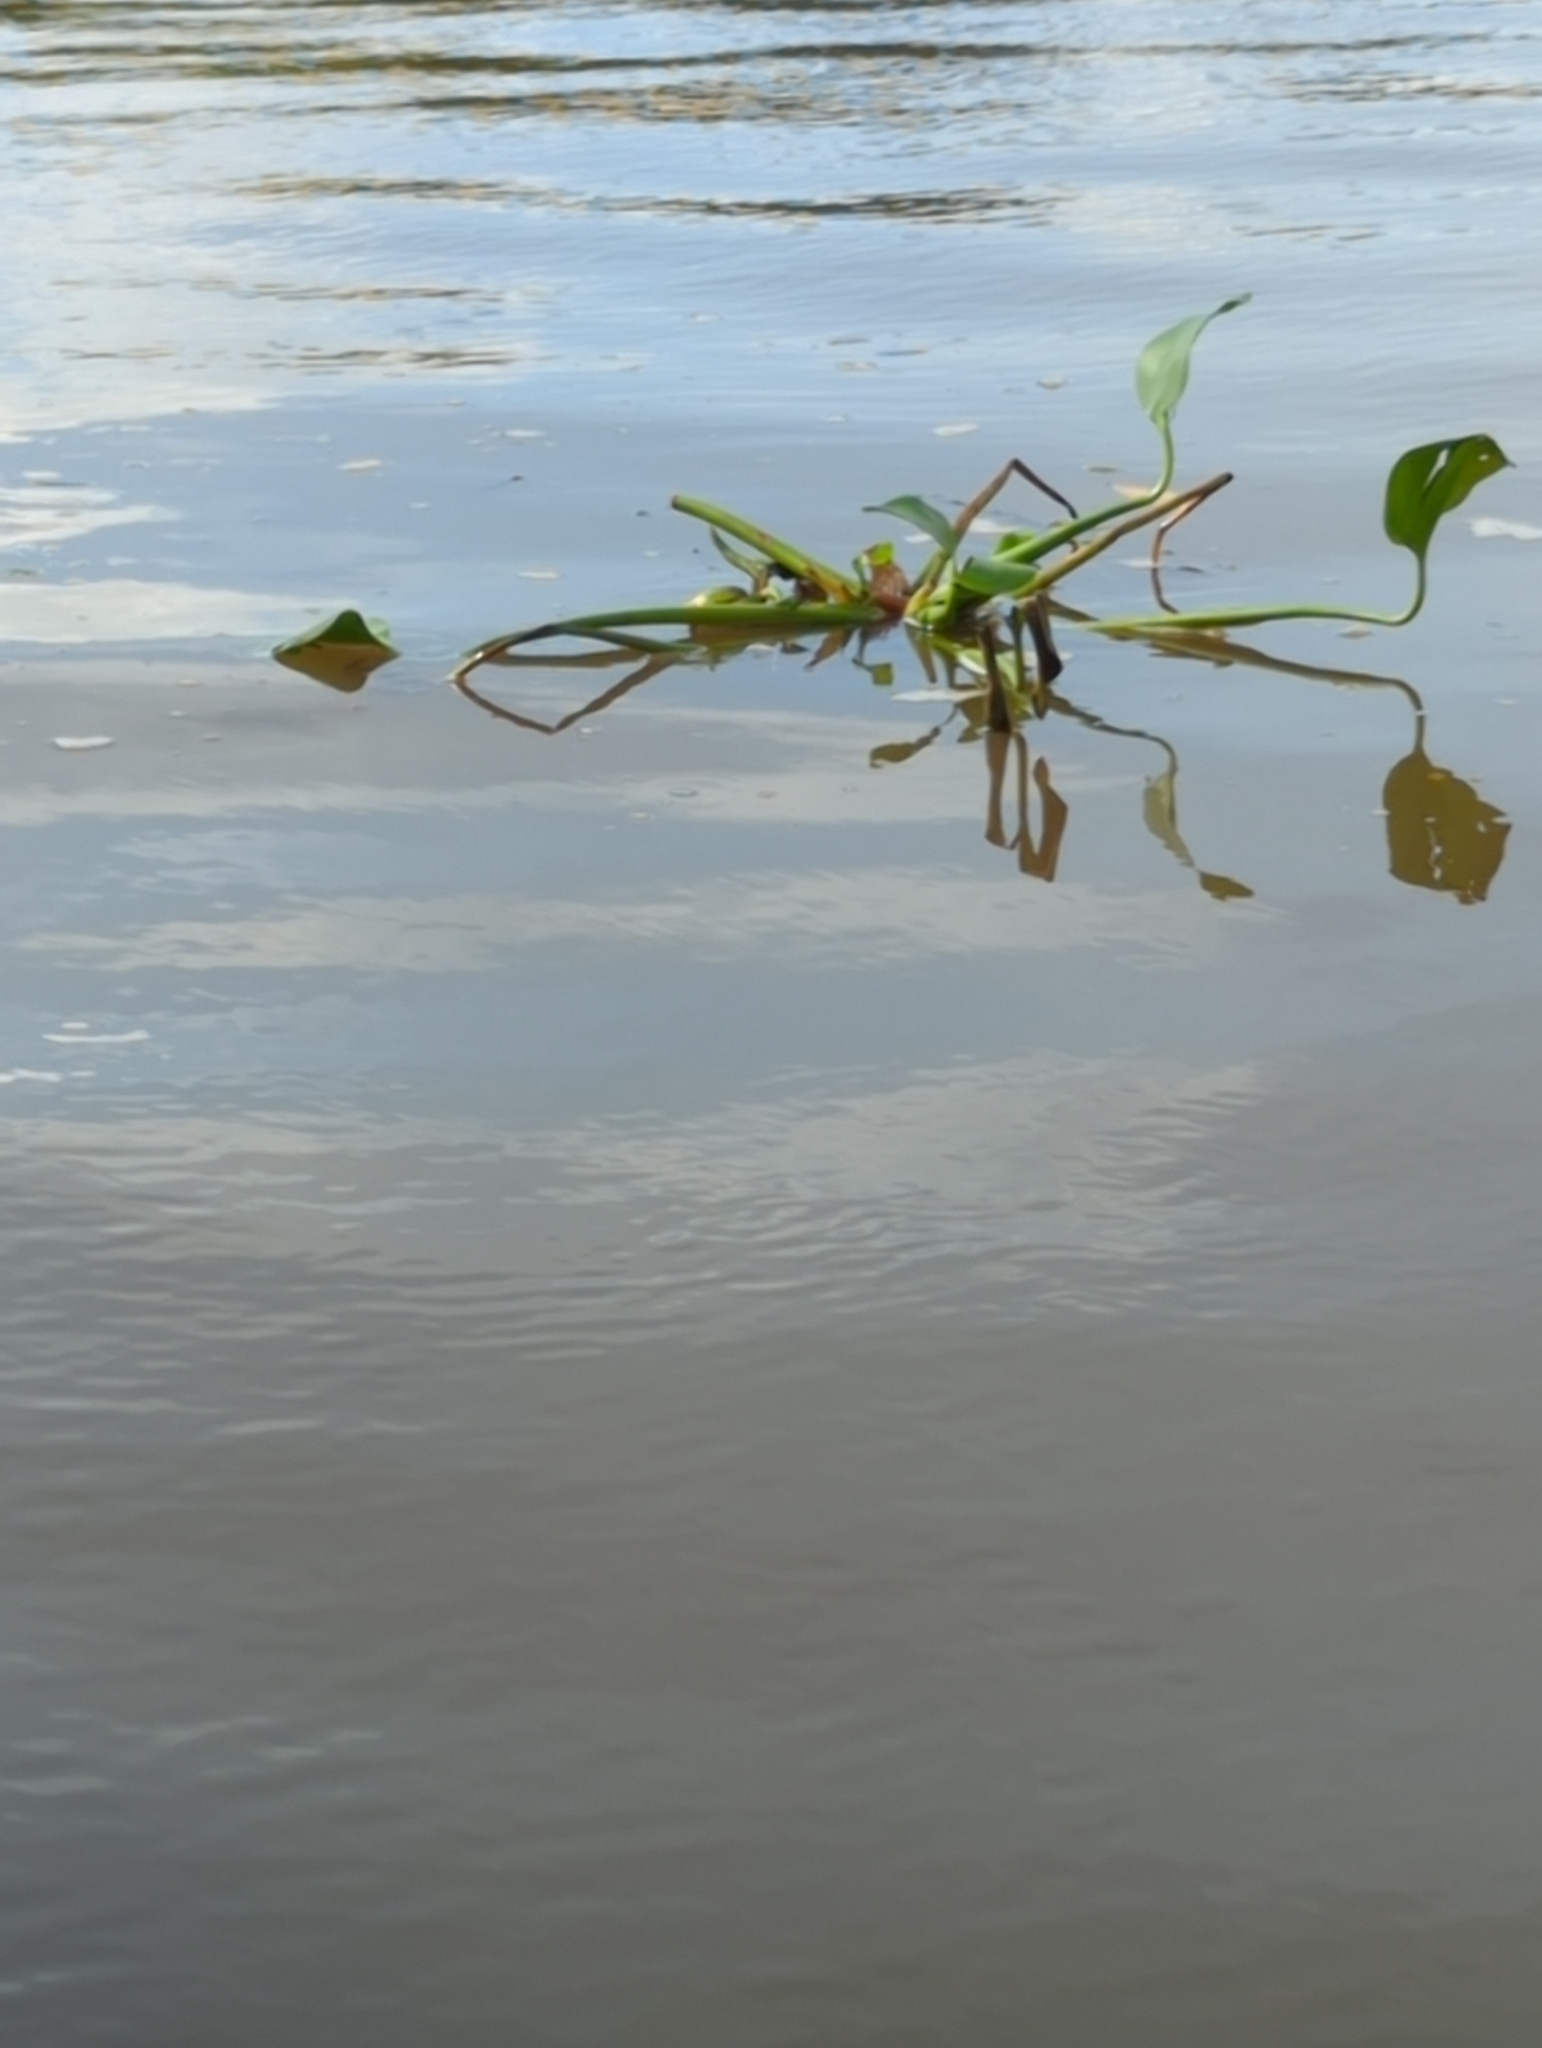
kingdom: Plantae
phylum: Tracheophyta
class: Liliopsida
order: Commelinales
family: Pontederiaceae
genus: Pontederia
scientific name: Pontederia crassipes
